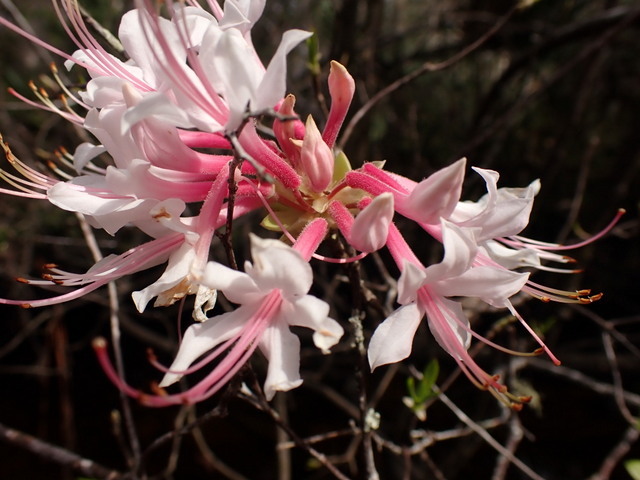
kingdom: Plantae
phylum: Tracheophyta
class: Magnoliopsida
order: Ericales
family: Ericaceae
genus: Rhododendron
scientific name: Rhododendron canescens
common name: Mountain azalea
